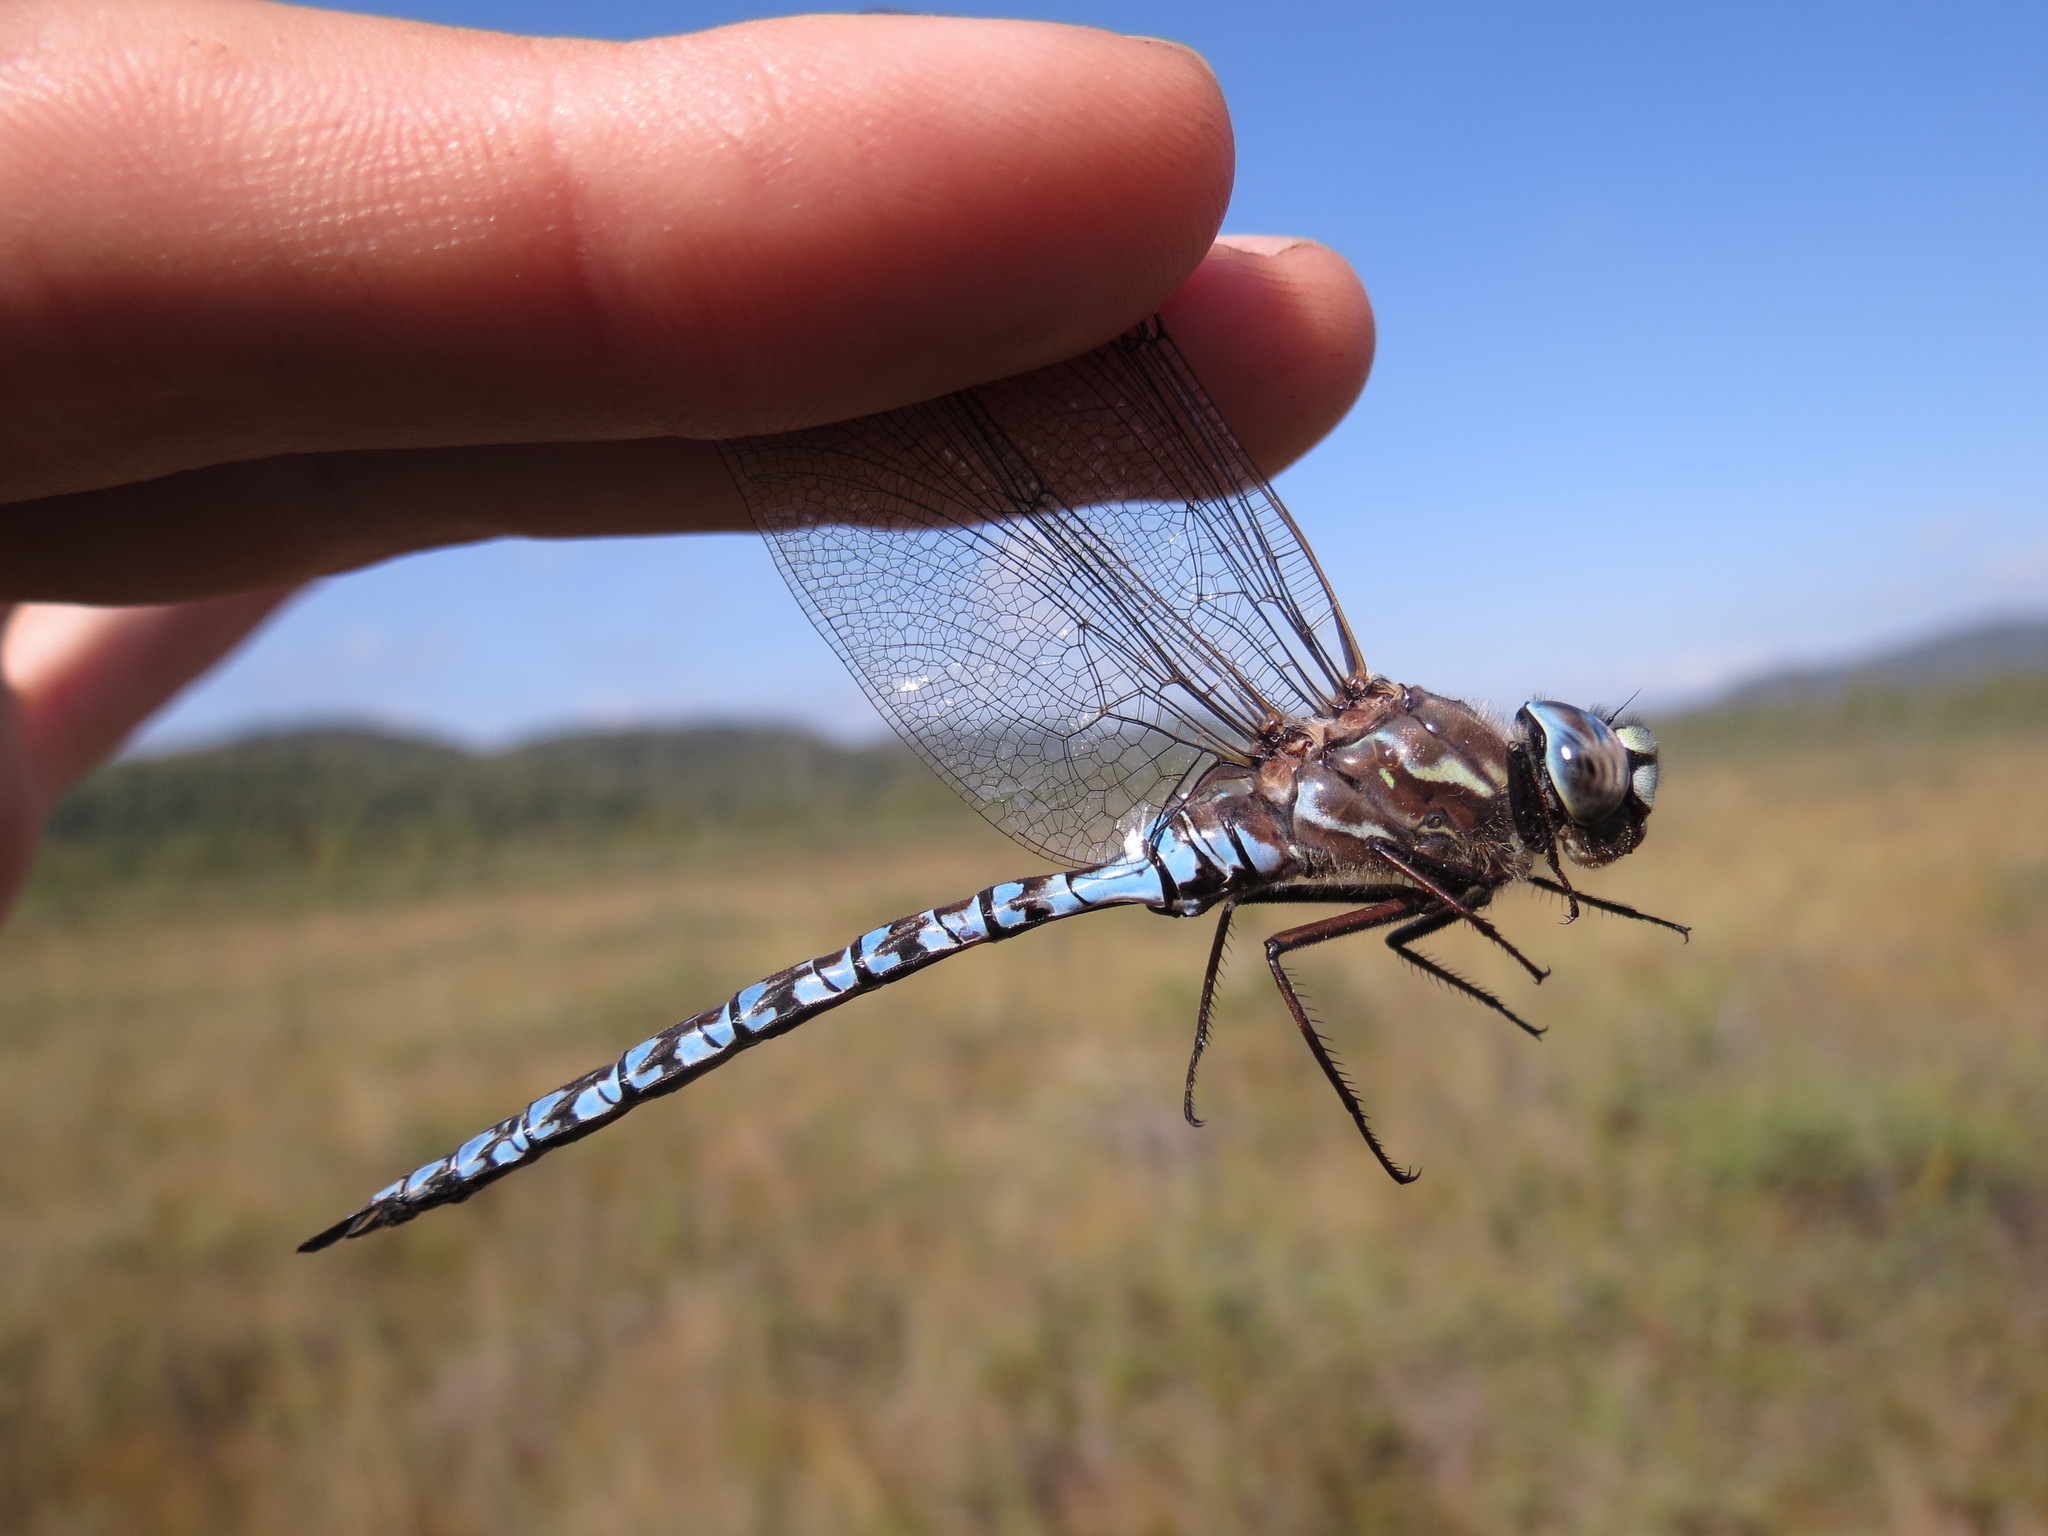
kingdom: Animalia
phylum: Arthropoda
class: Insecta
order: Odonata
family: Aeshnidae
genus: Aeshna
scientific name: Aeshna sitchensis
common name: Zigzag darner
